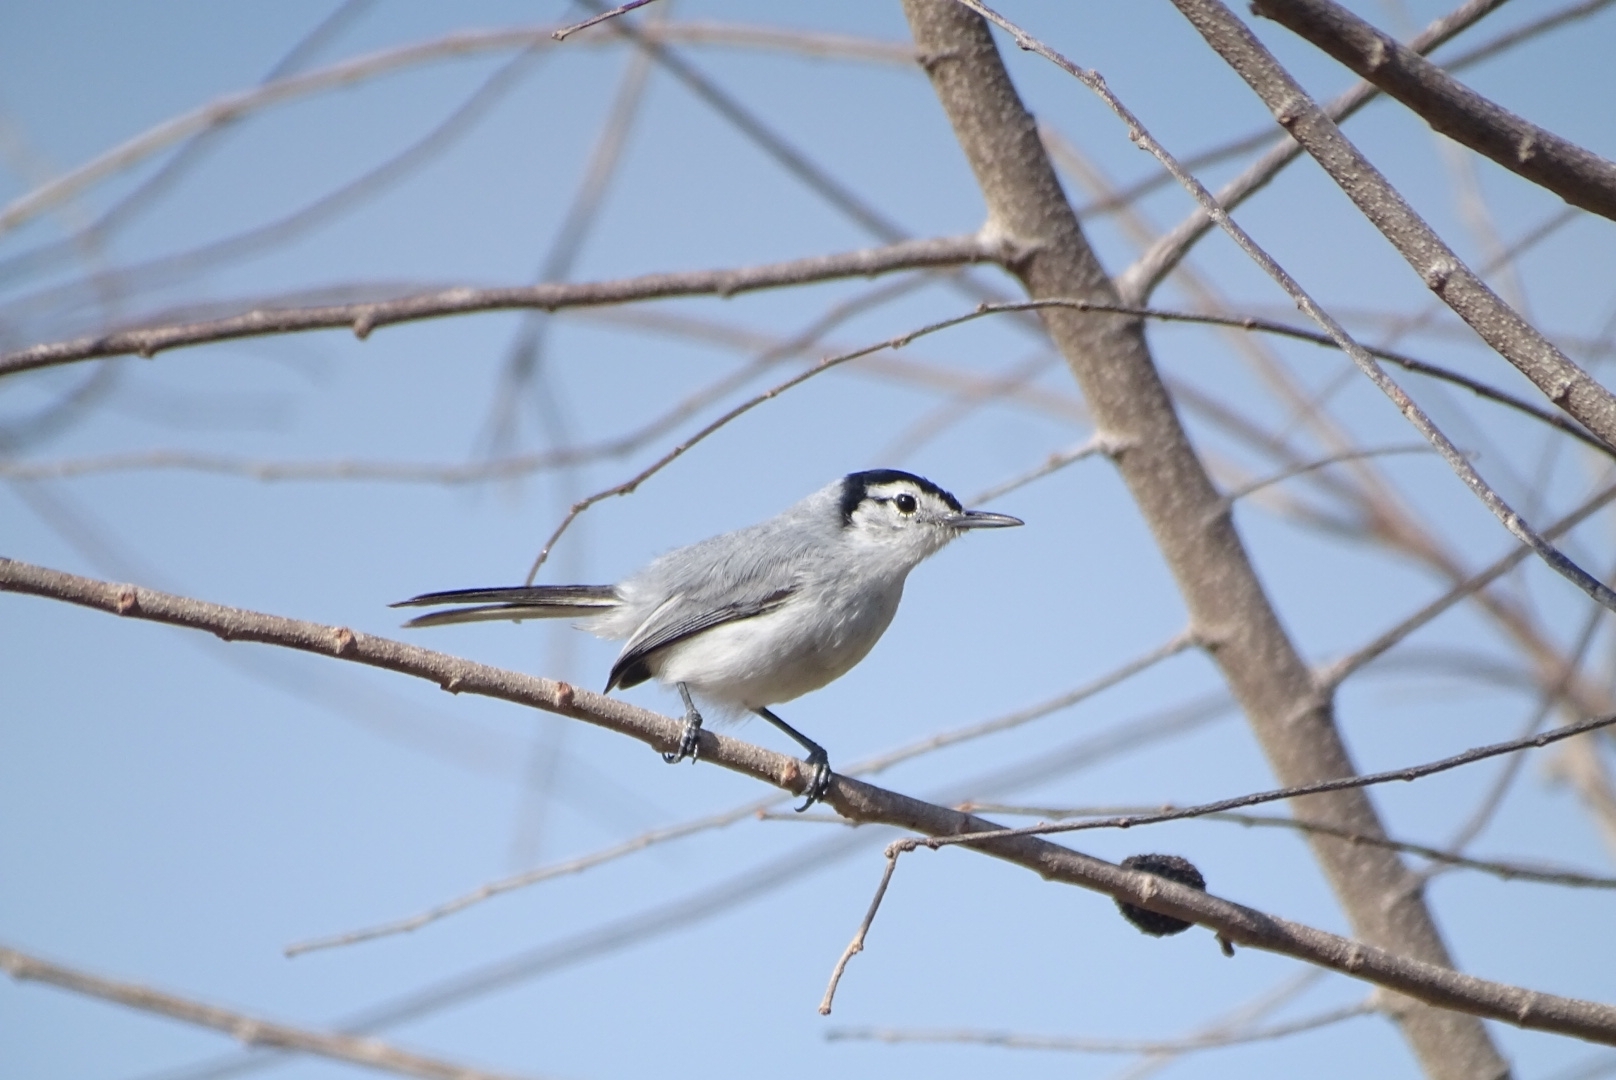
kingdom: Animalia
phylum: Chordata
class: Aves
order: Passeriformes
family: Polioptilidae
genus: Polioptila
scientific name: Polioptila plumbea
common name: Tropical gnatcatcher
